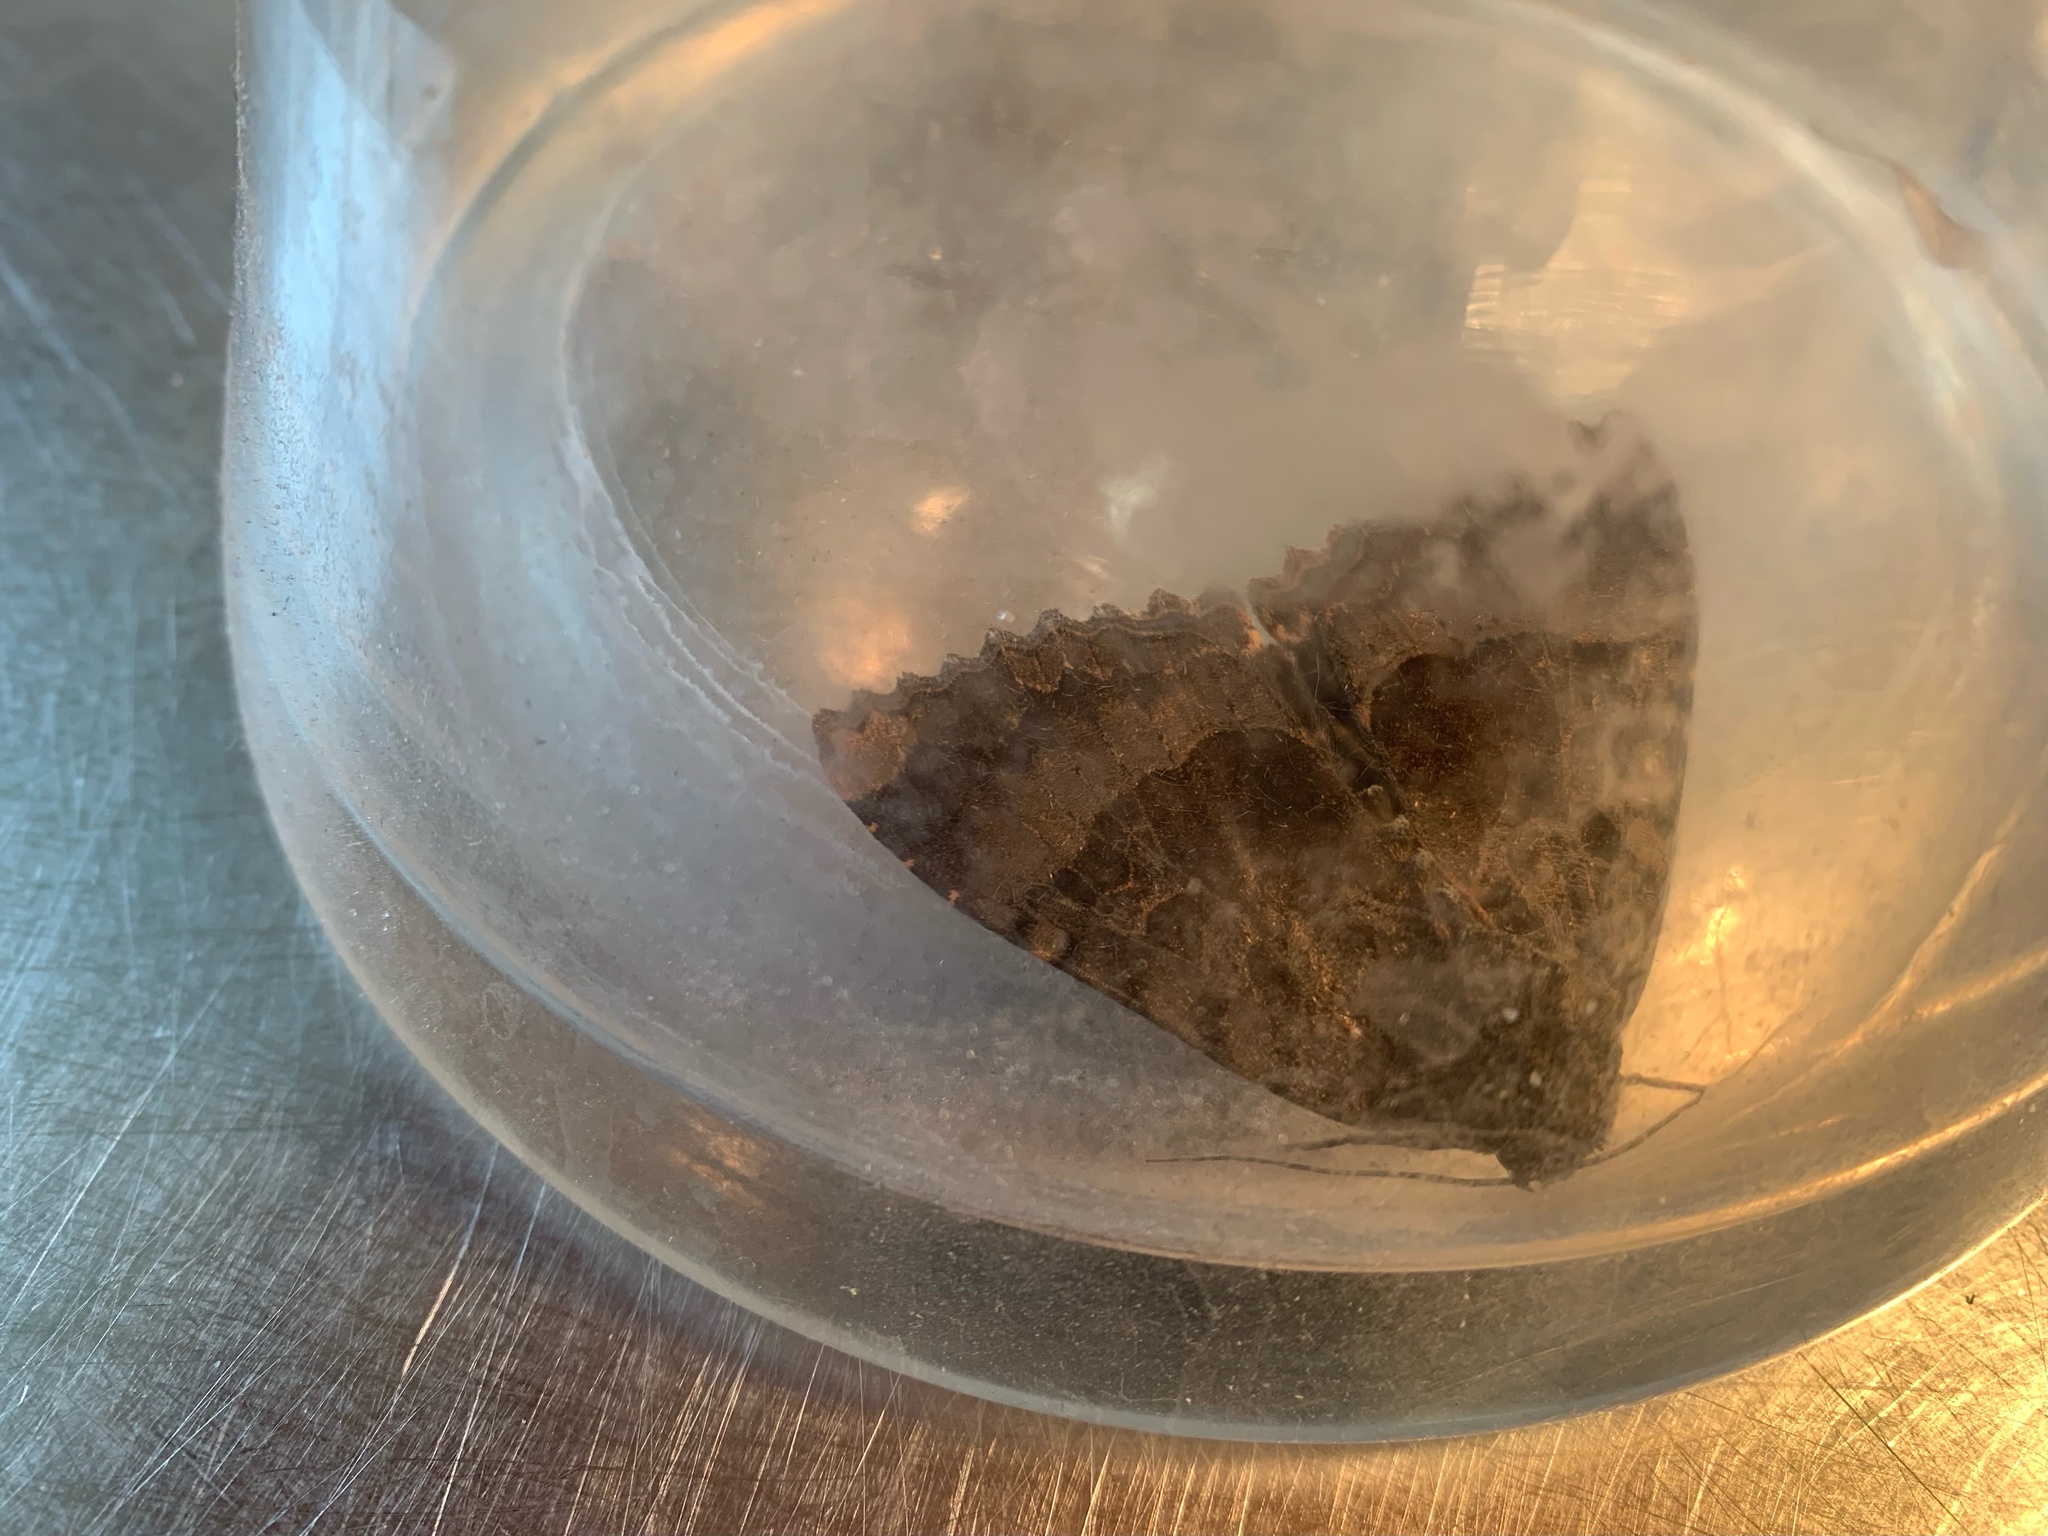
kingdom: Animalia
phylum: Arthropoda
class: Insecta
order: Lepidoptera
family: Noctuidae
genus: Mormo
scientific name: Mormo maura
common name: Old lady
